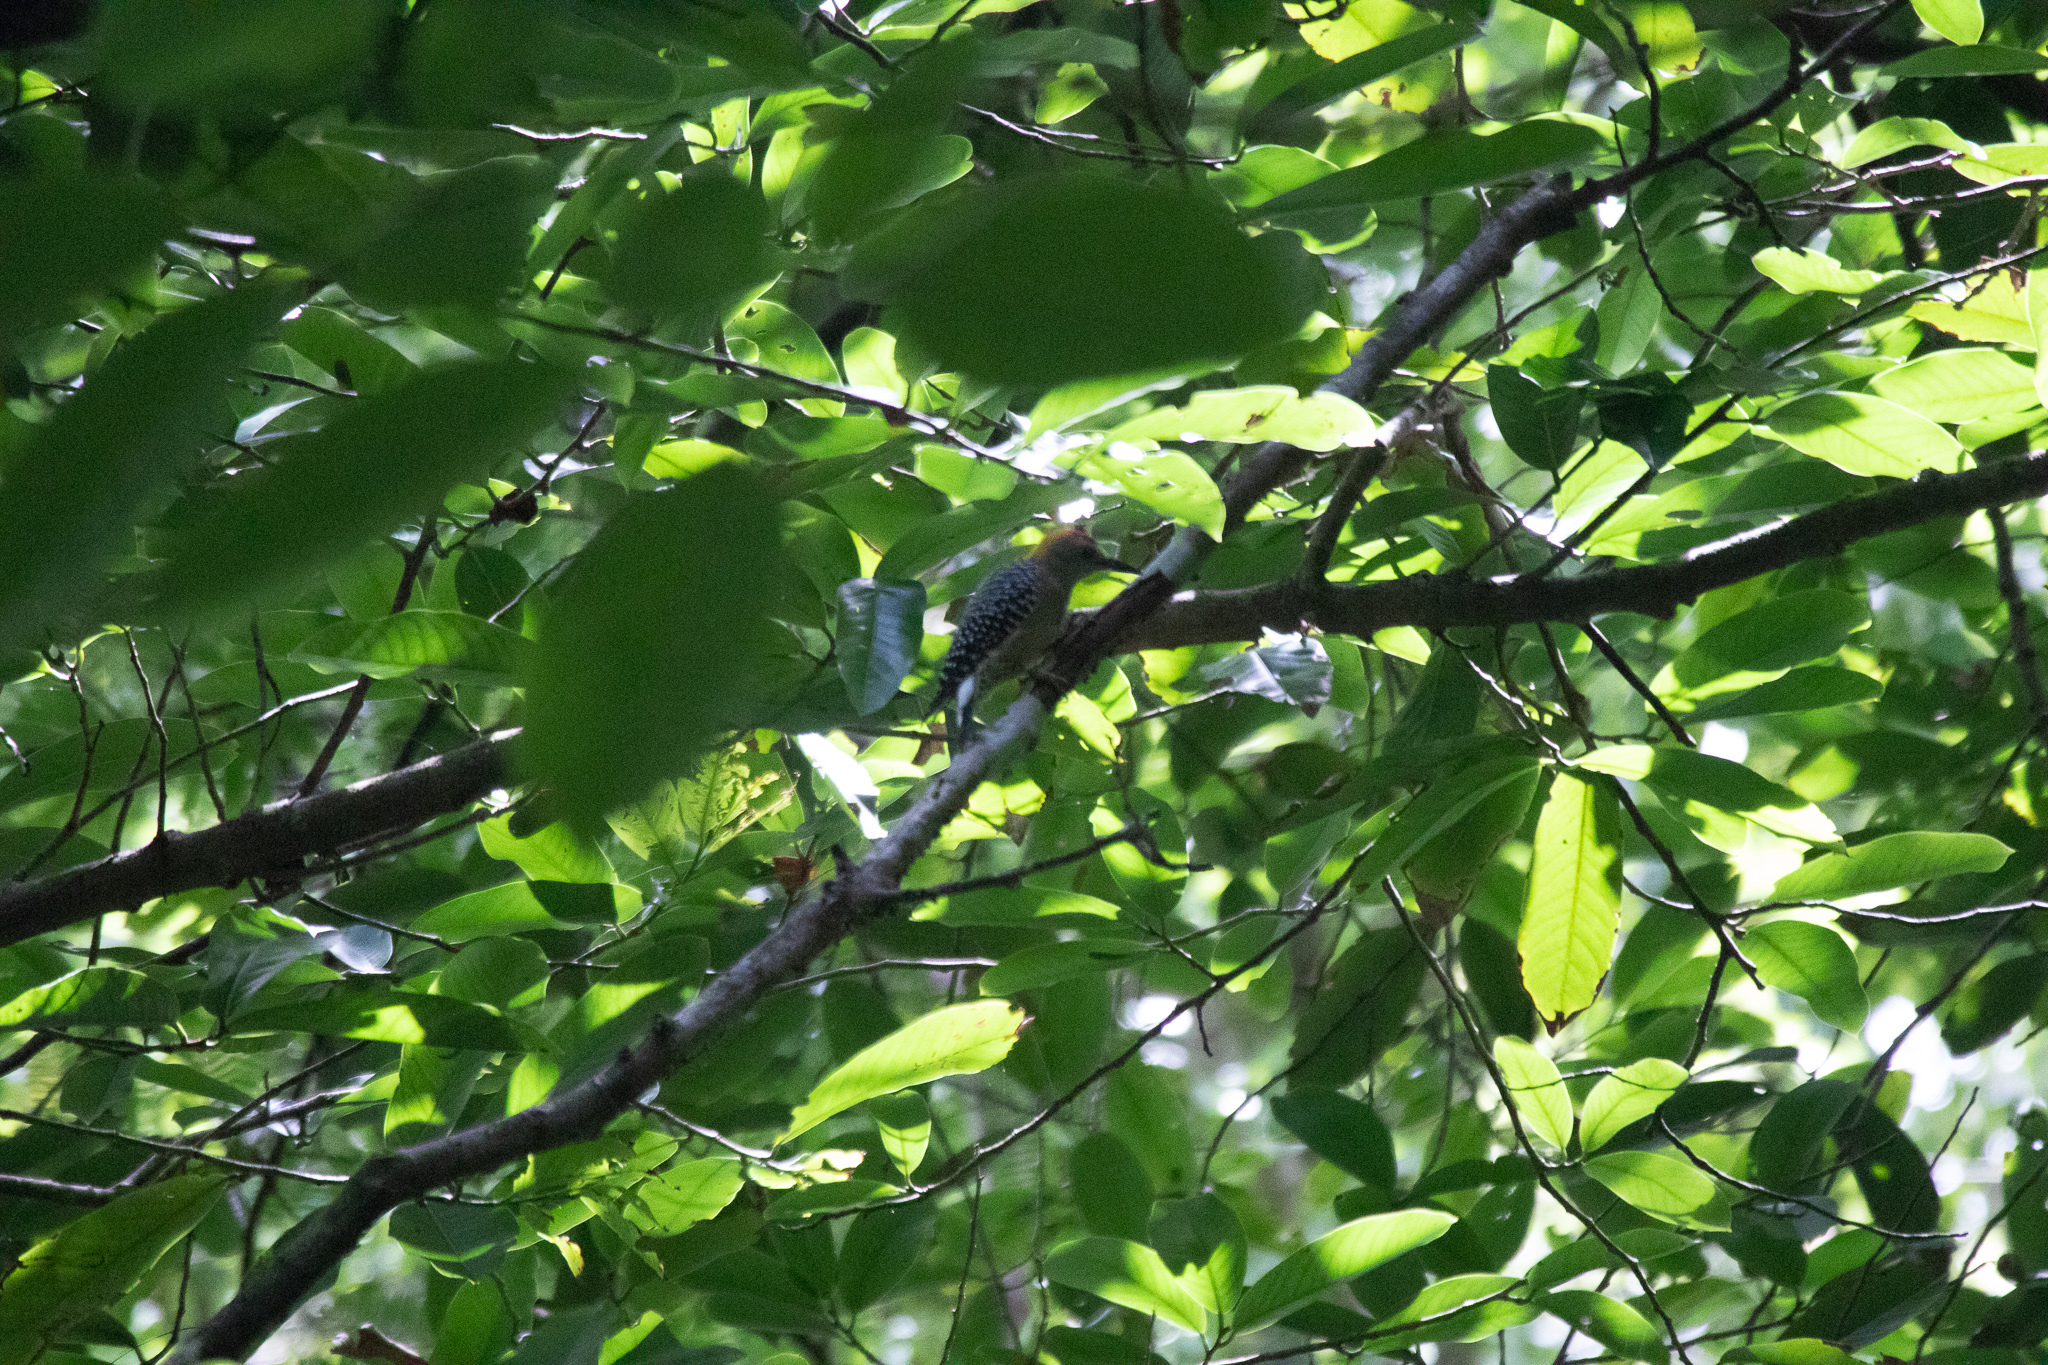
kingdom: Animalia
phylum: Chordata
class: Aves
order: Piciformes
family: Picidae
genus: Melanerpes
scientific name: Melanerpes hoffmannii
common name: Hoffmann's woodpecker
